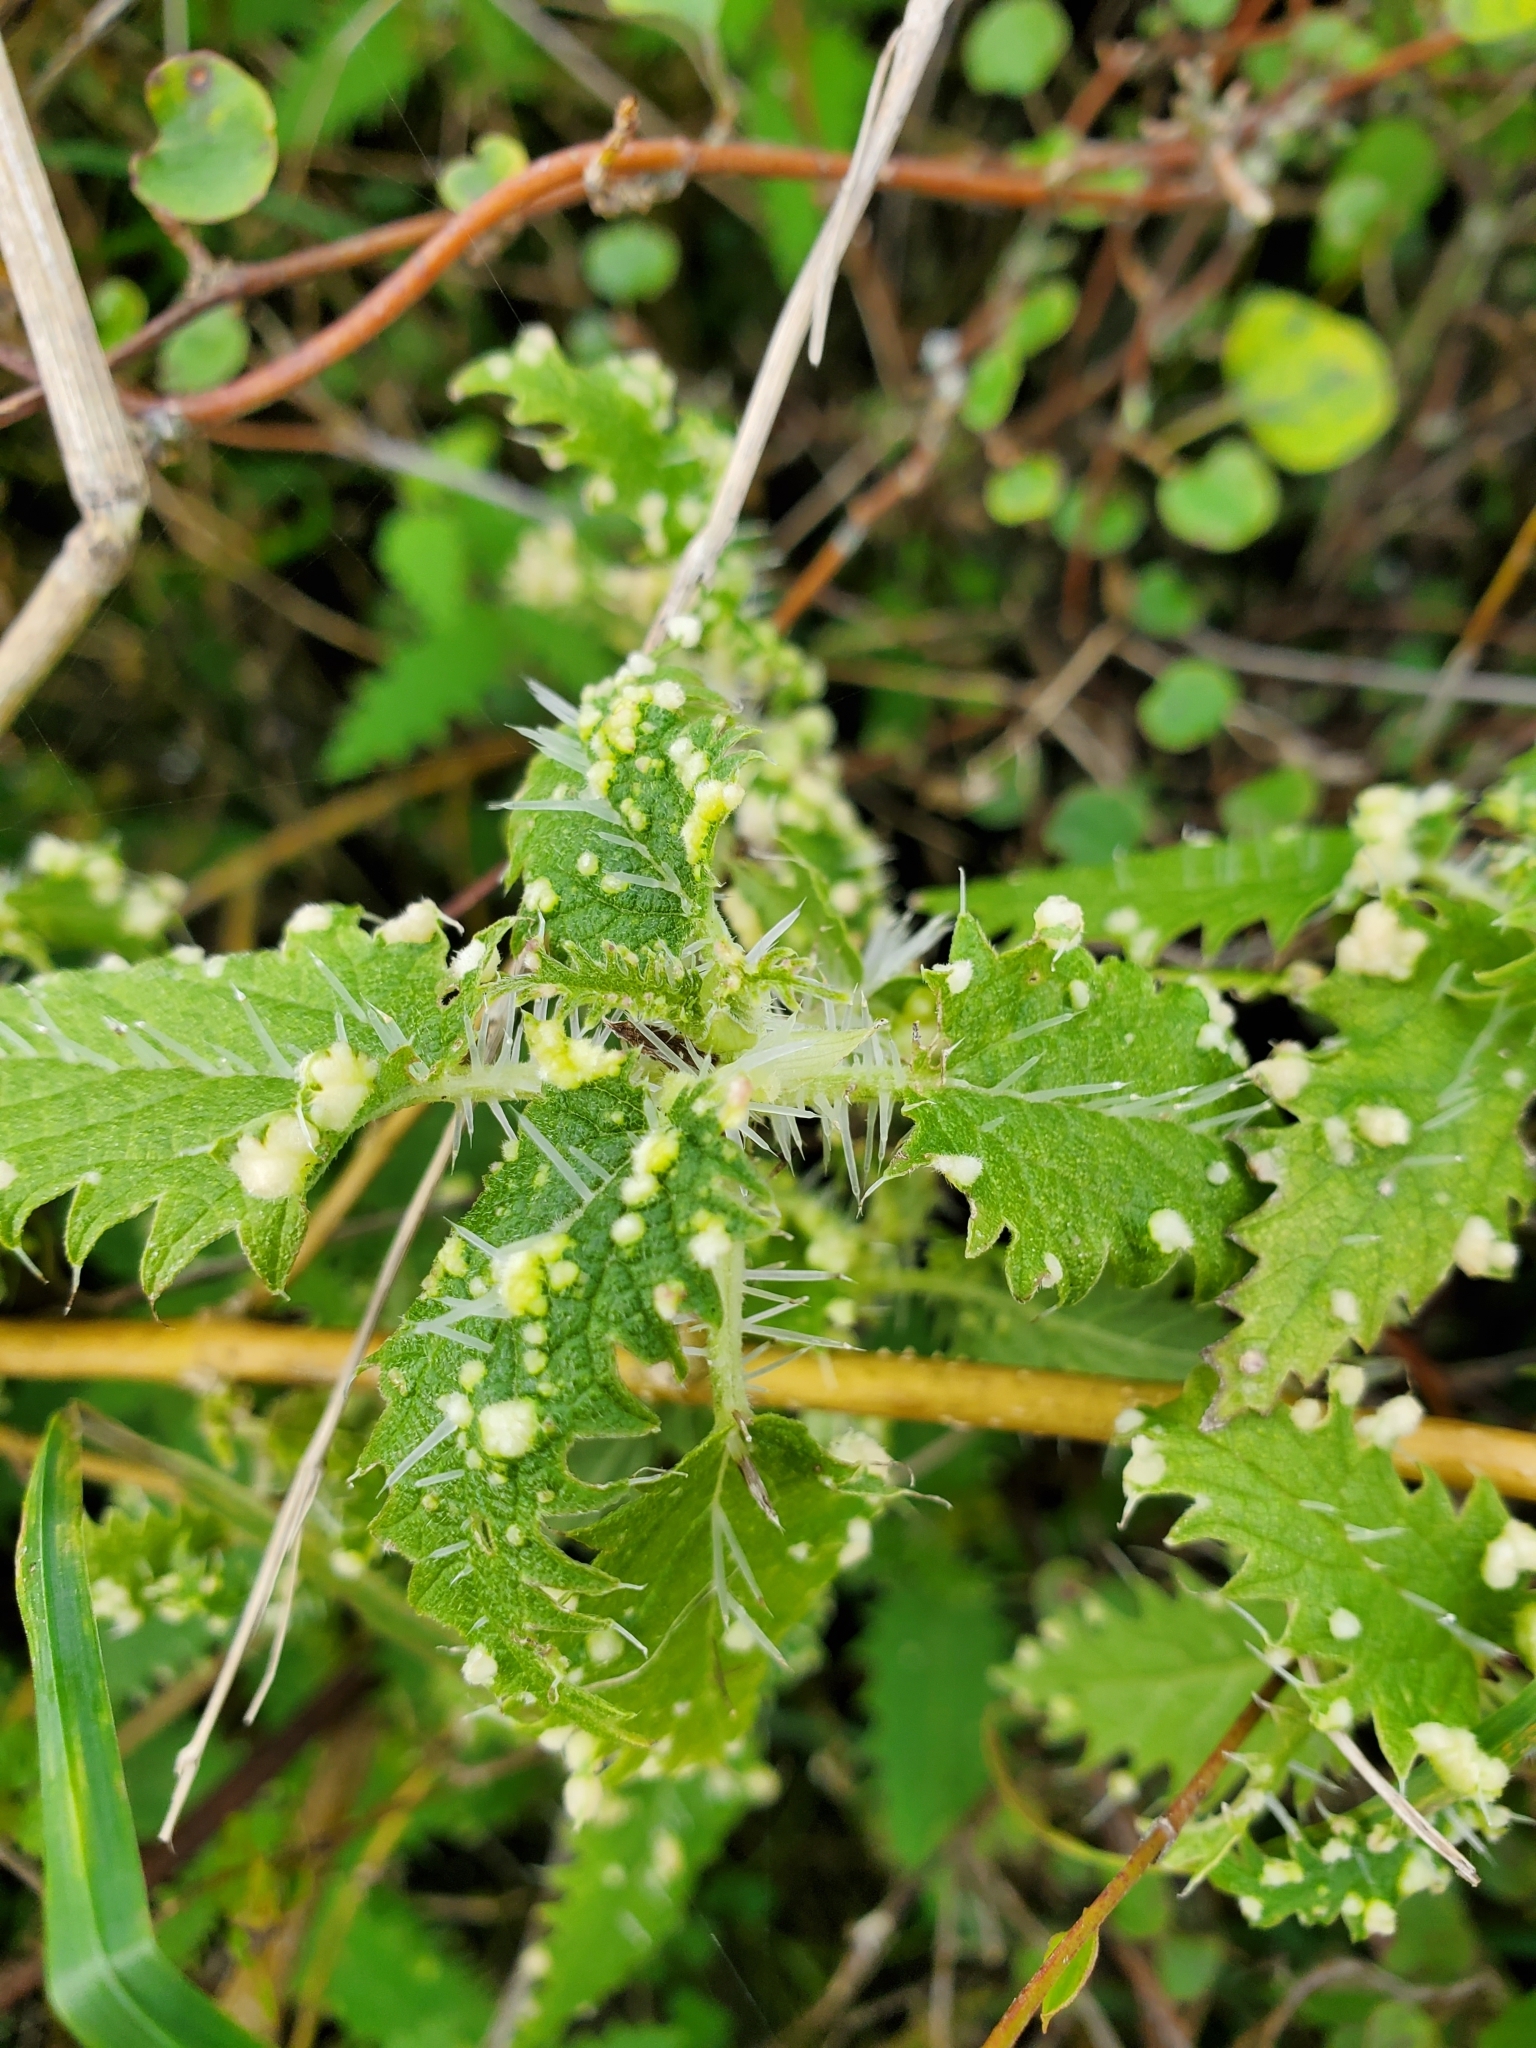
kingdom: Plantae
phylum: Tracheophyta
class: Magnoliopsida
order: Rosales
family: Urticaceae
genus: Urtica
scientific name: Urtica ferox
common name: Tree nettle
